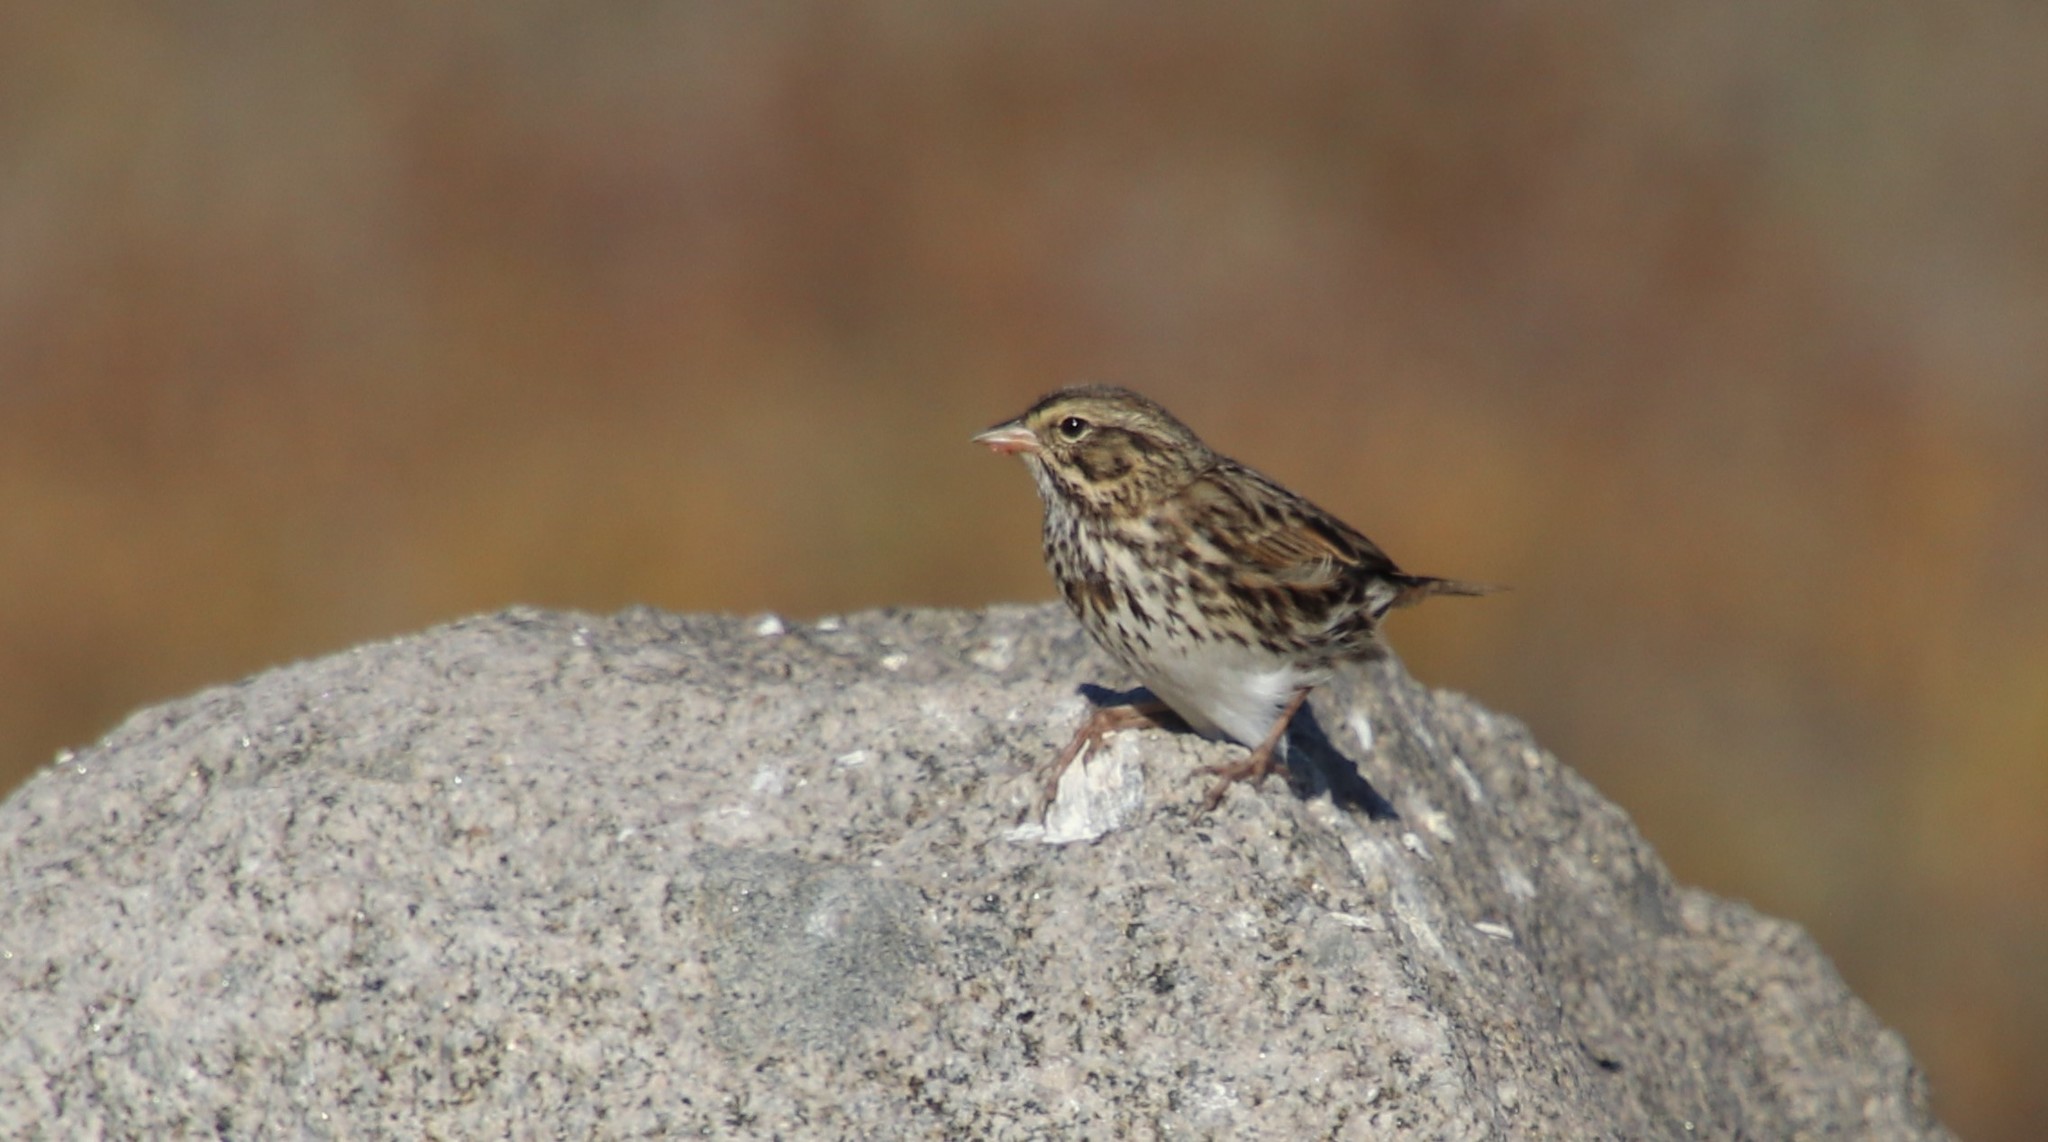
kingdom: Animalia
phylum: Chordata
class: Aves
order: Passeriformes
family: Passerellidae
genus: Passerculus
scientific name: Passerculus sandwichensis
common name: Savannah sparrow
